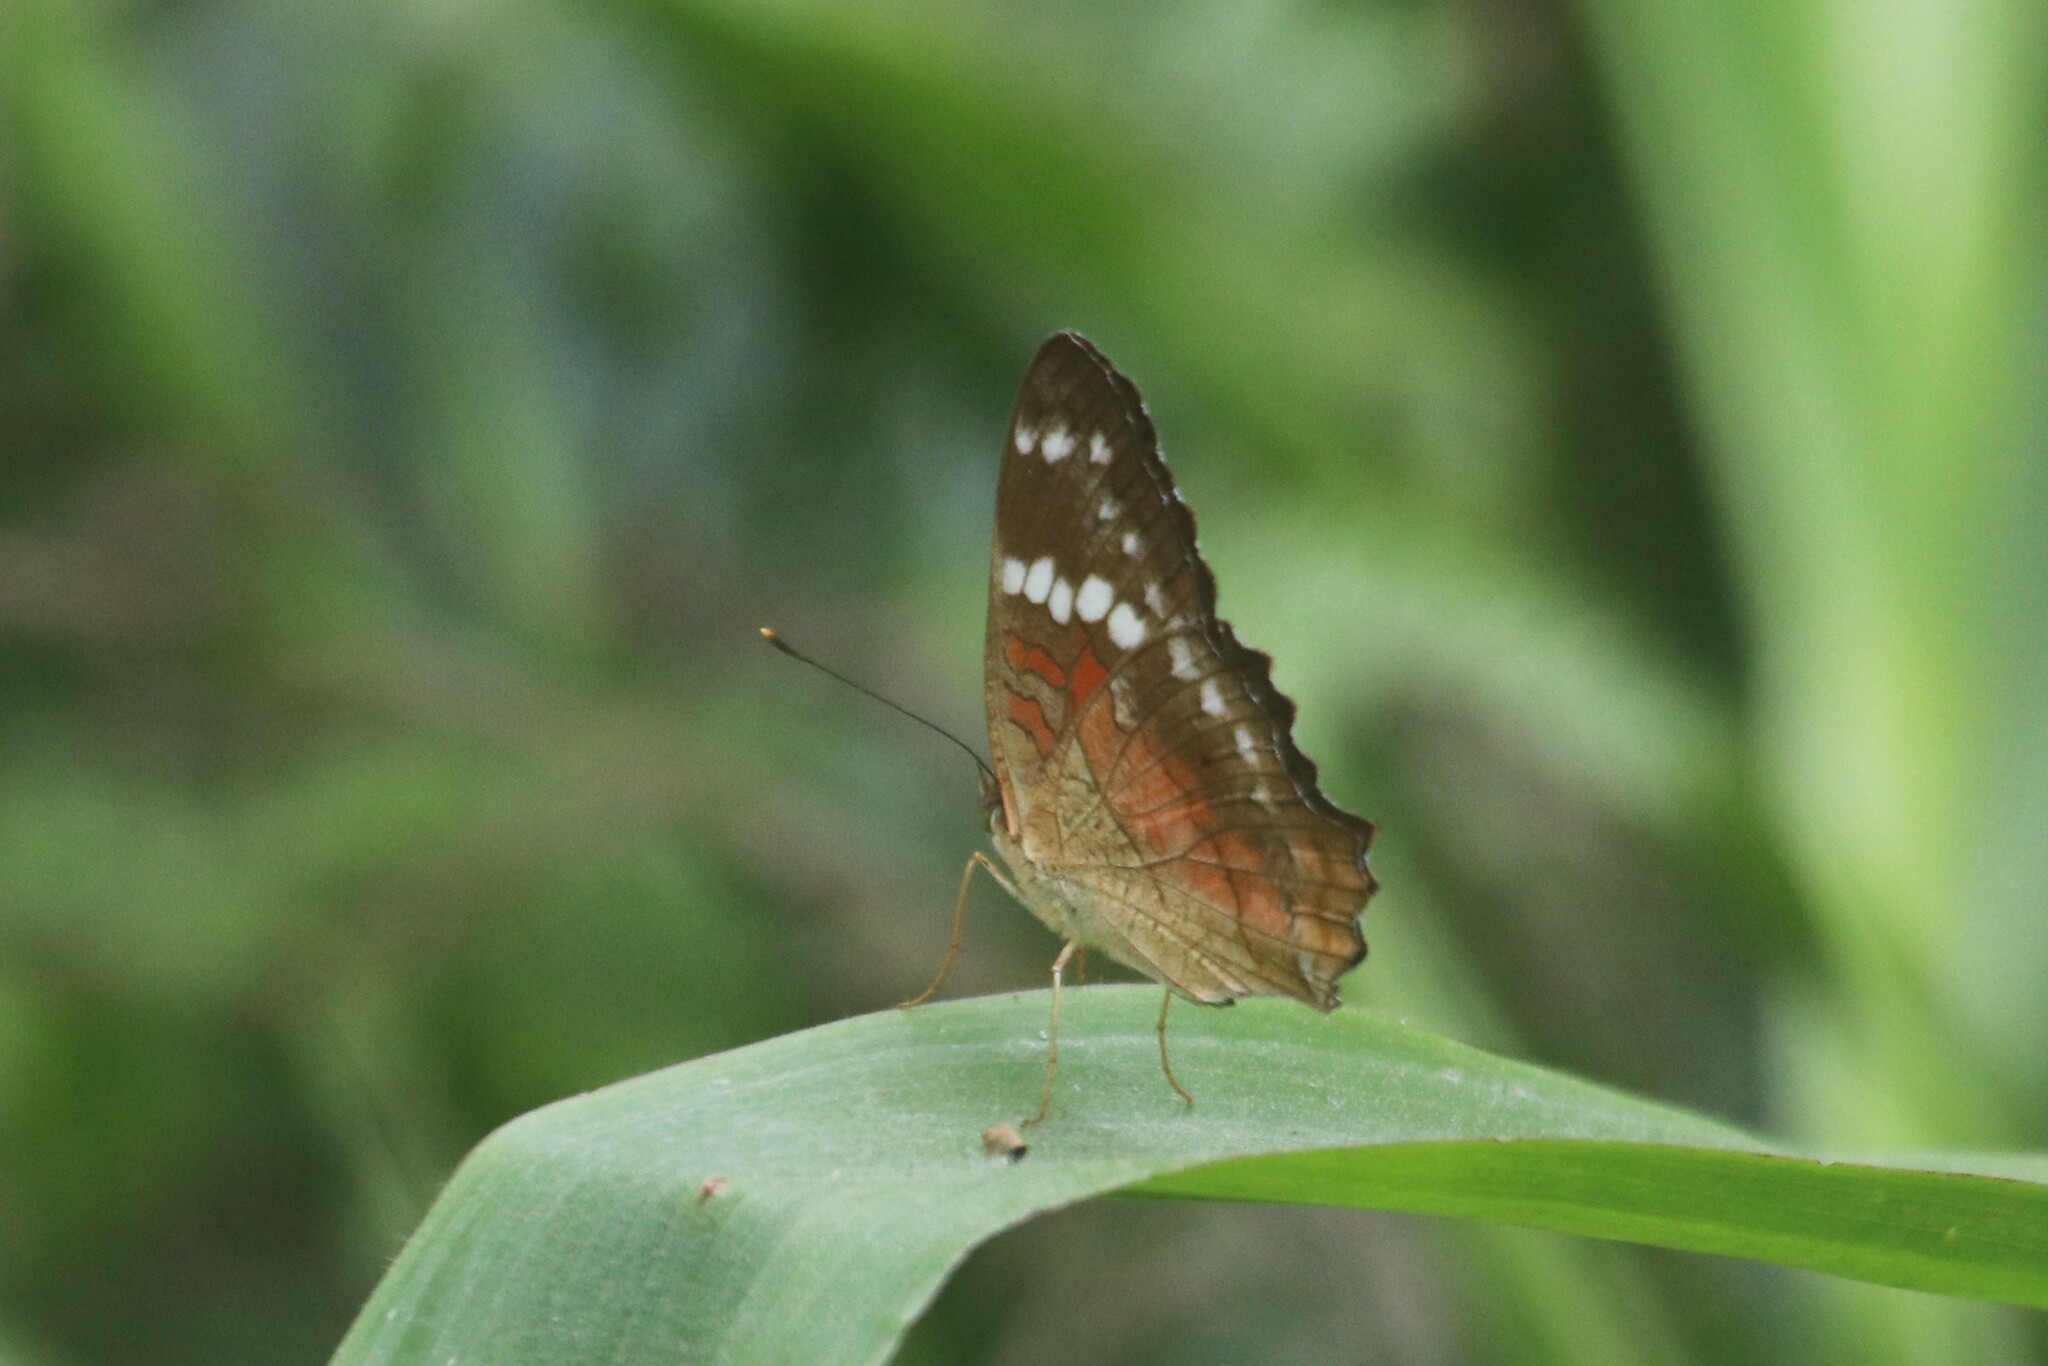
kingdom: Animalia
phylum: Arthropoda
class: Insecta
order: Lepidoptera
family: Nymphalidae
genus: Anartia
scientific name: Anartia amathea
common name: Red peacock
